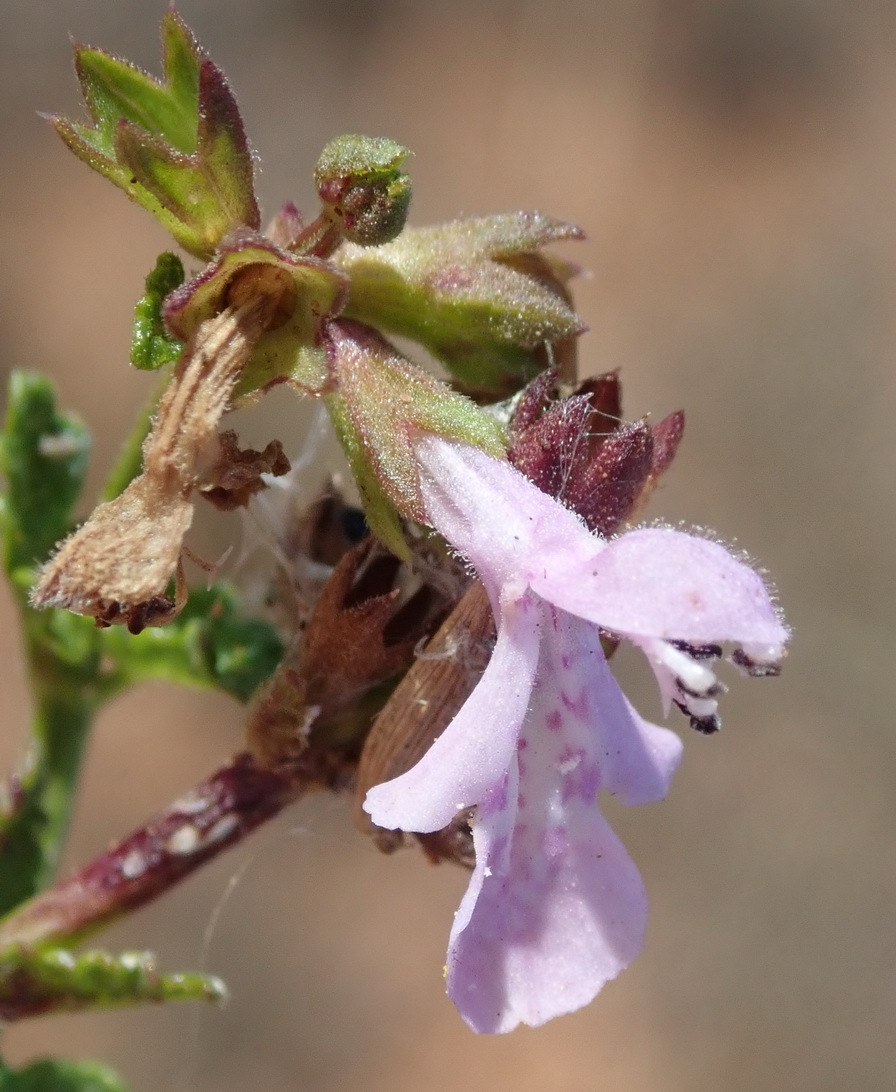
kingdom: Plantae
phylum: Tracheophyta
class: Magnoliopsida
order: Lamiales
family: Lamiaceae
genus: Stachys
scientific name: Stachys sublobata
